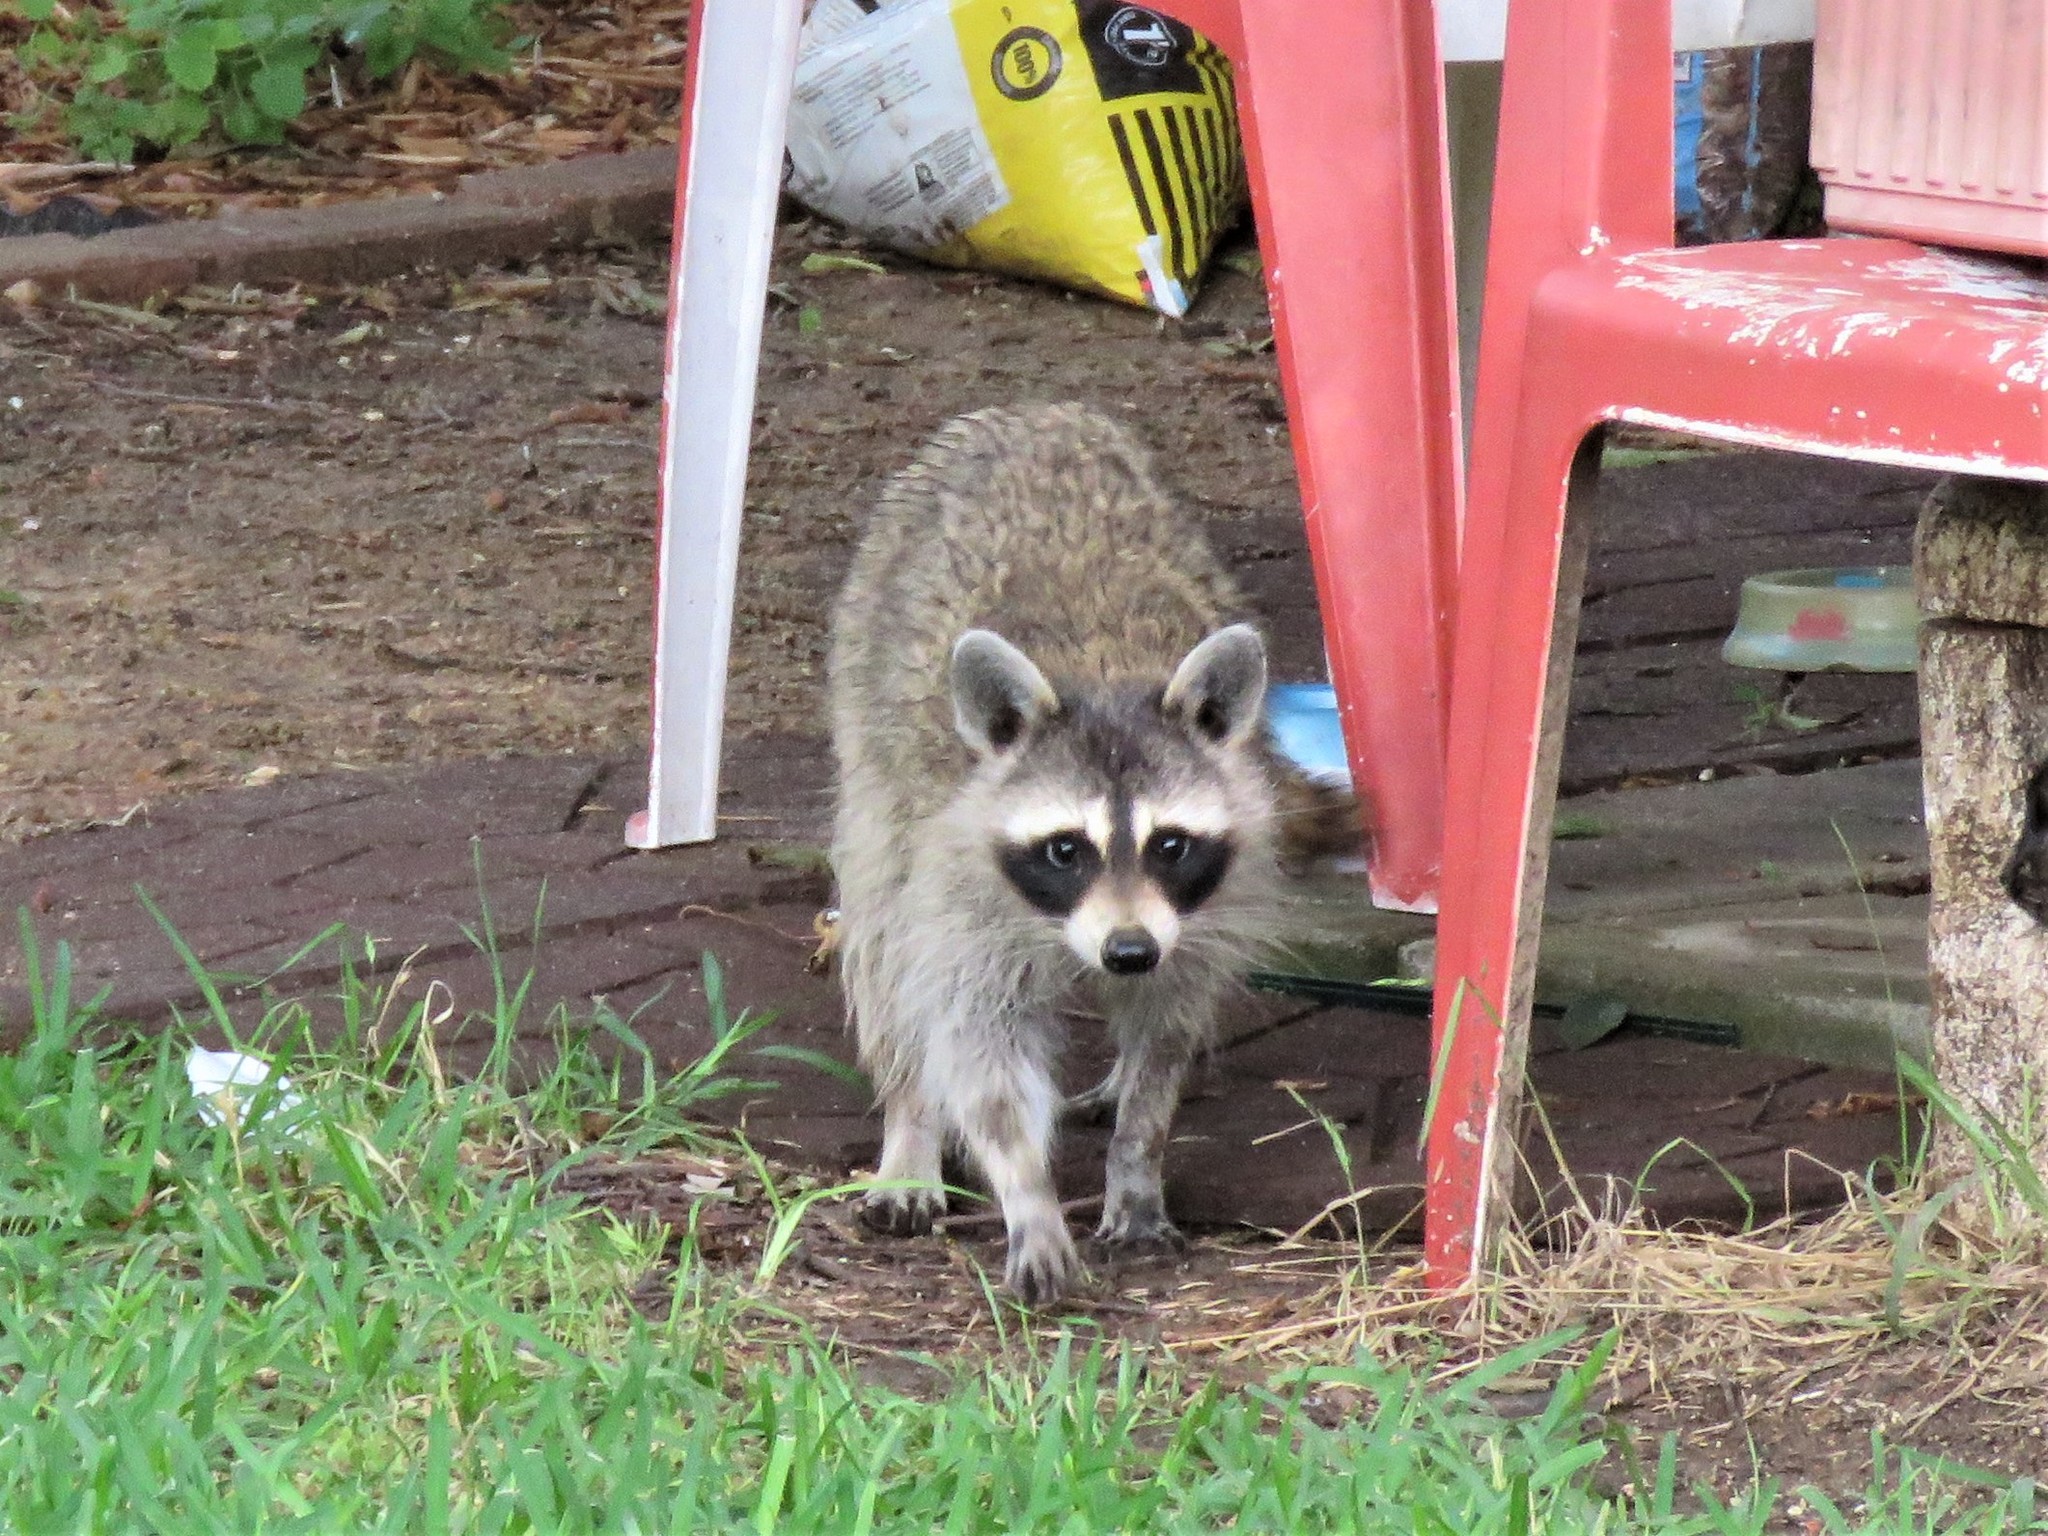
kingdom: Animalia
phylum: Chordata
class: Mammalia
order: Carnivora
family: Procyonidae
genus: Procyon
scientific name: Procyon lotor
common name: Raccoon
